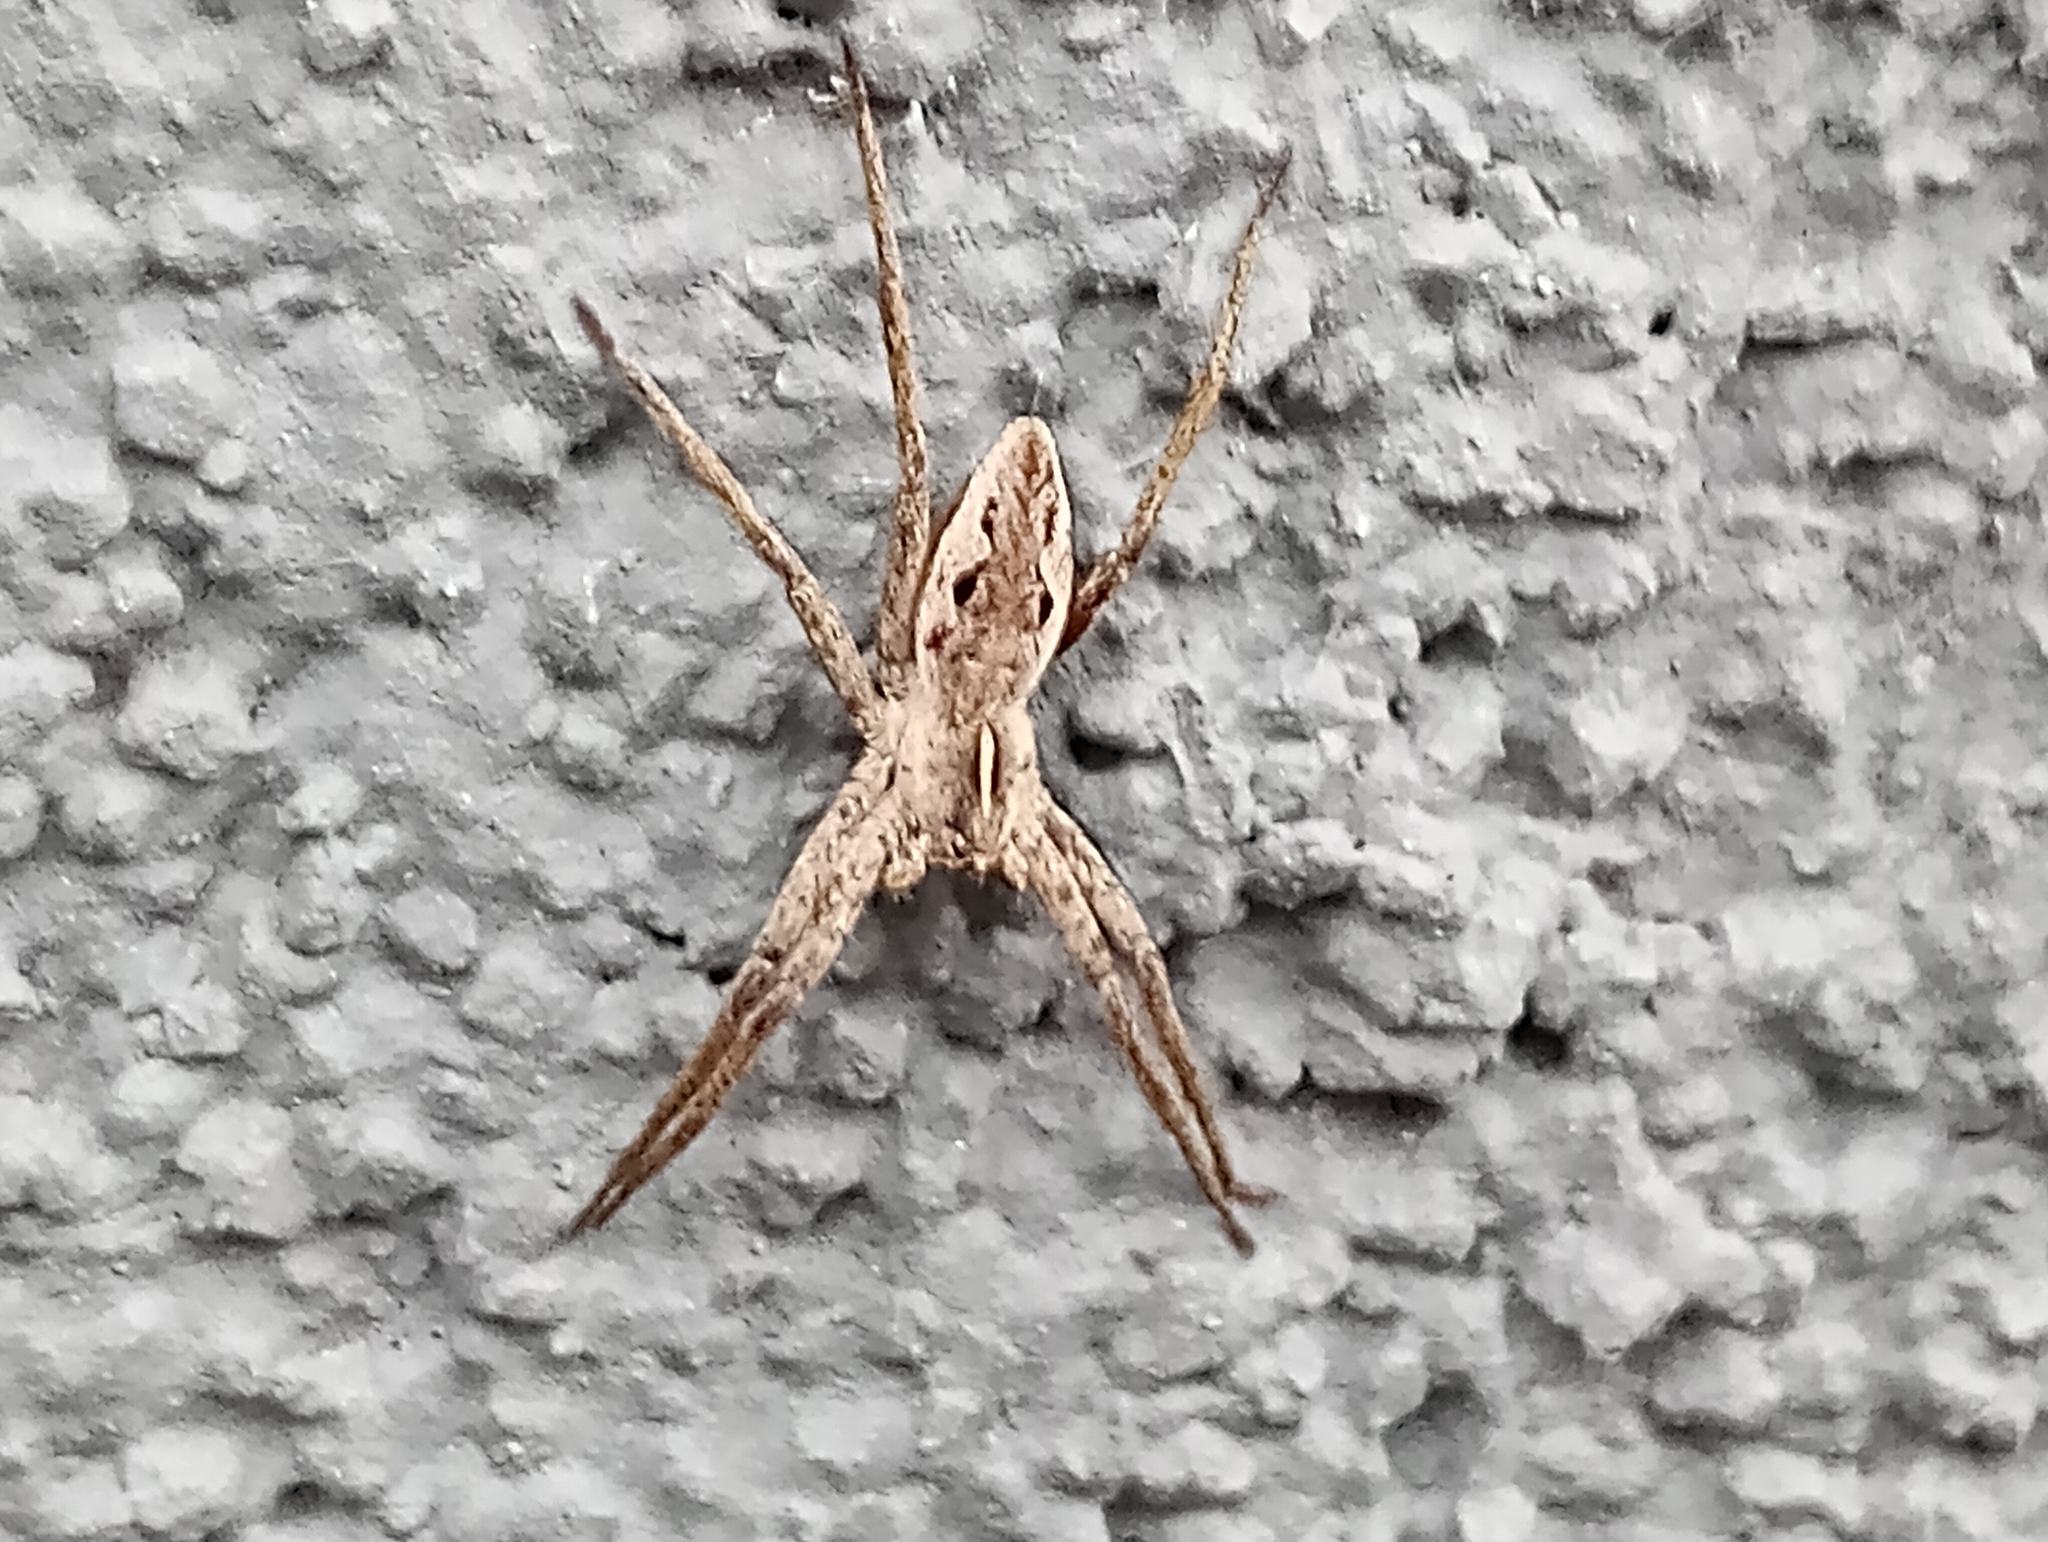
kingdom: Animalia
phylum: Arthropoda
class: Arachnida
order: Araneae
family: Pisauridae
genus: Pisaura
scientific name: Pisaura mirabilis
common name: Tent spider
